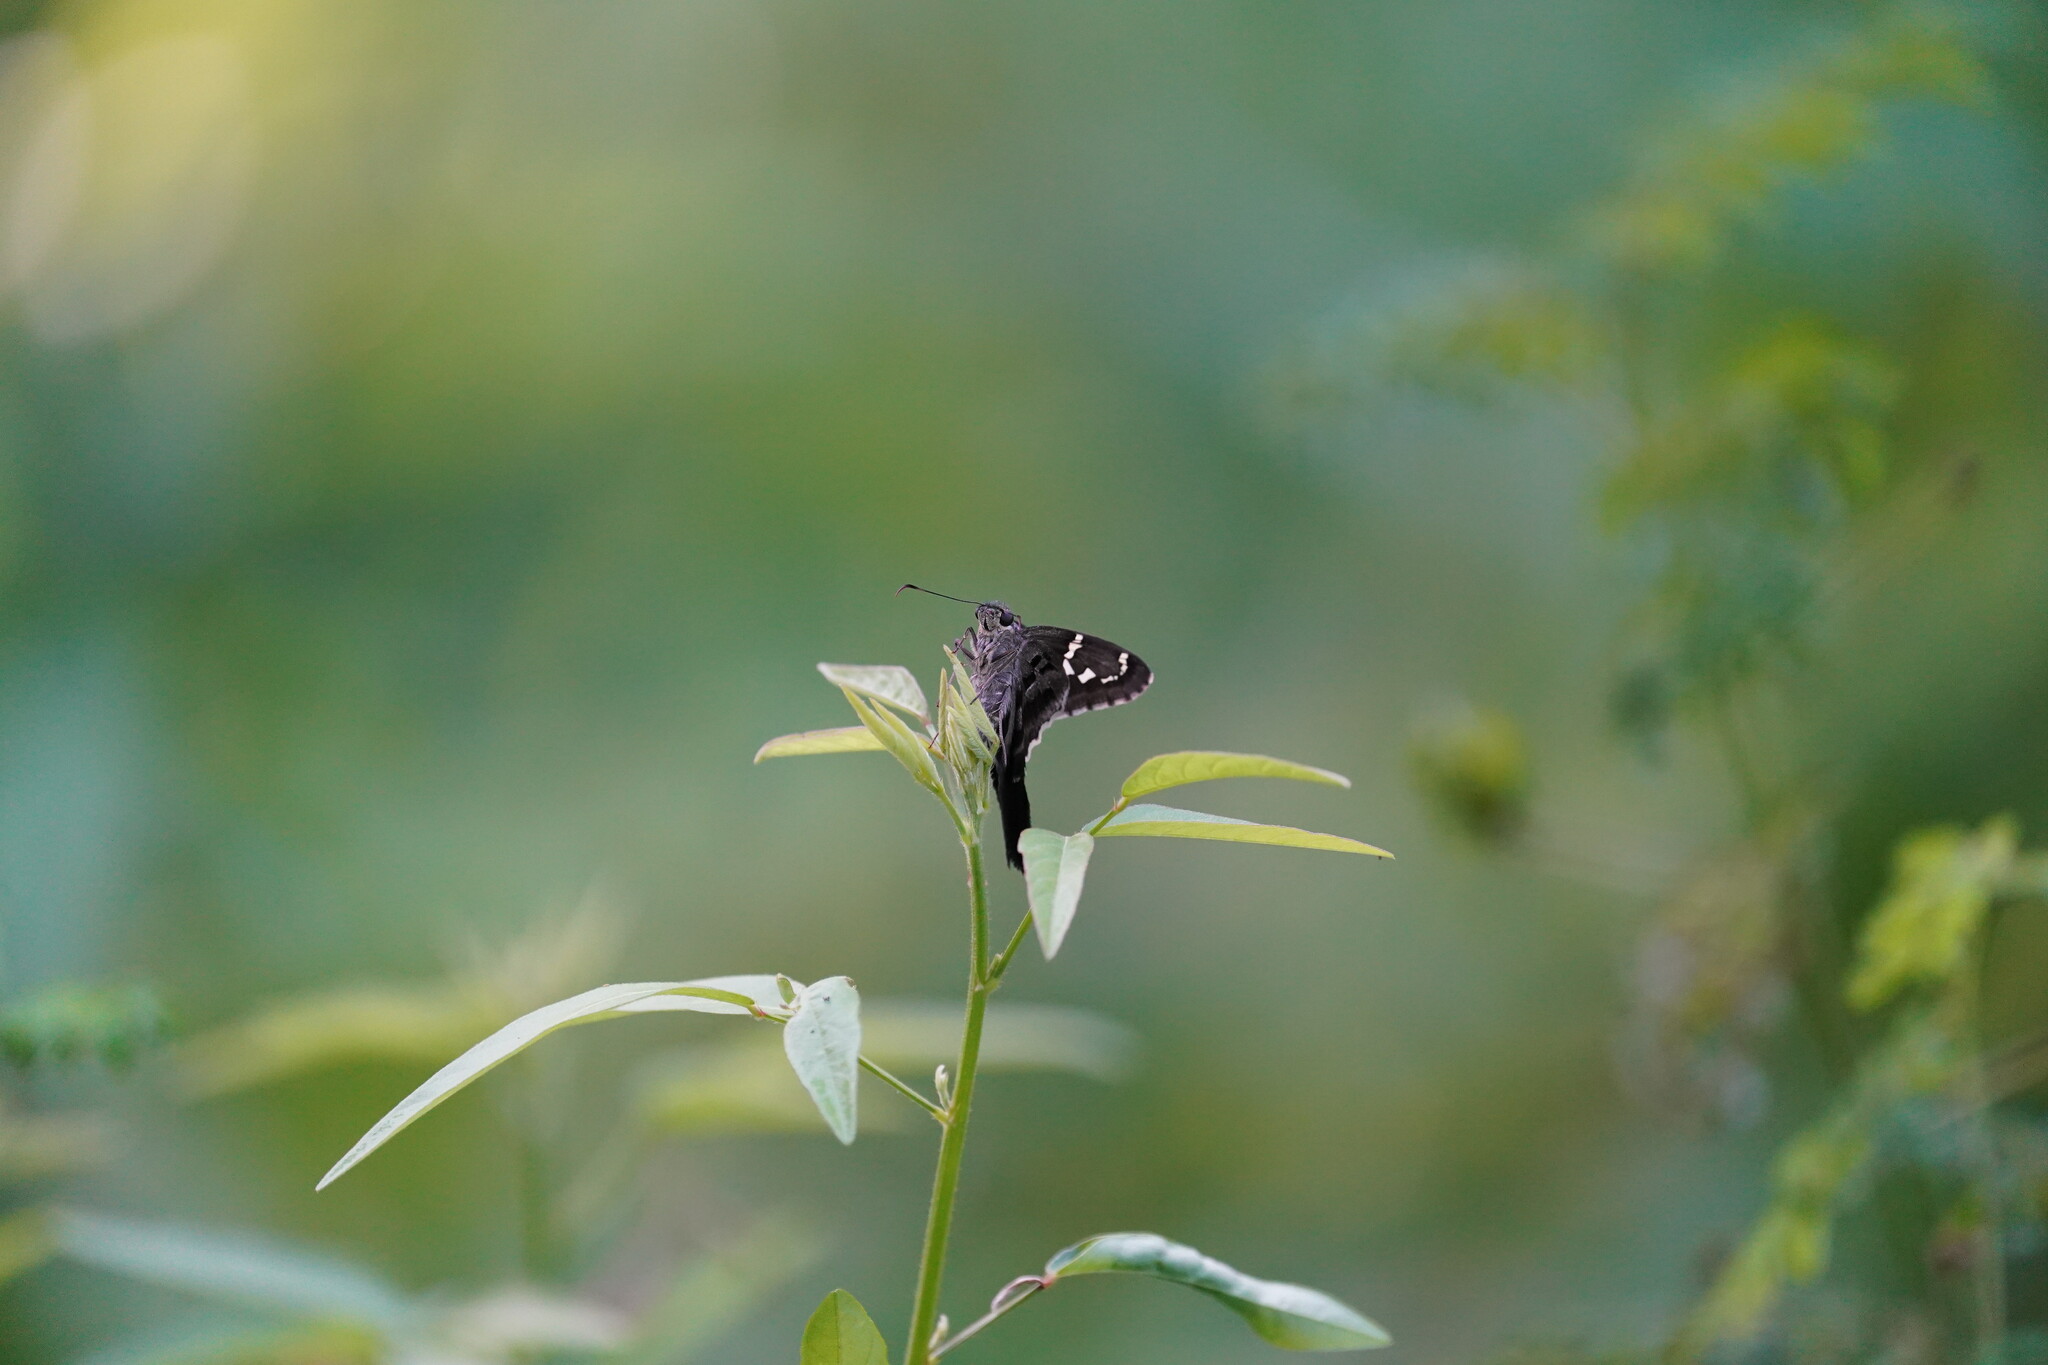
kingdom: Animalia
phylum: Arthropoda
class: Insecta
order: Lepidoptera
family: Hesperiidae
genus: Urbanus
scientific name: Urbanus proteus
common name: Long-tailed skipper
